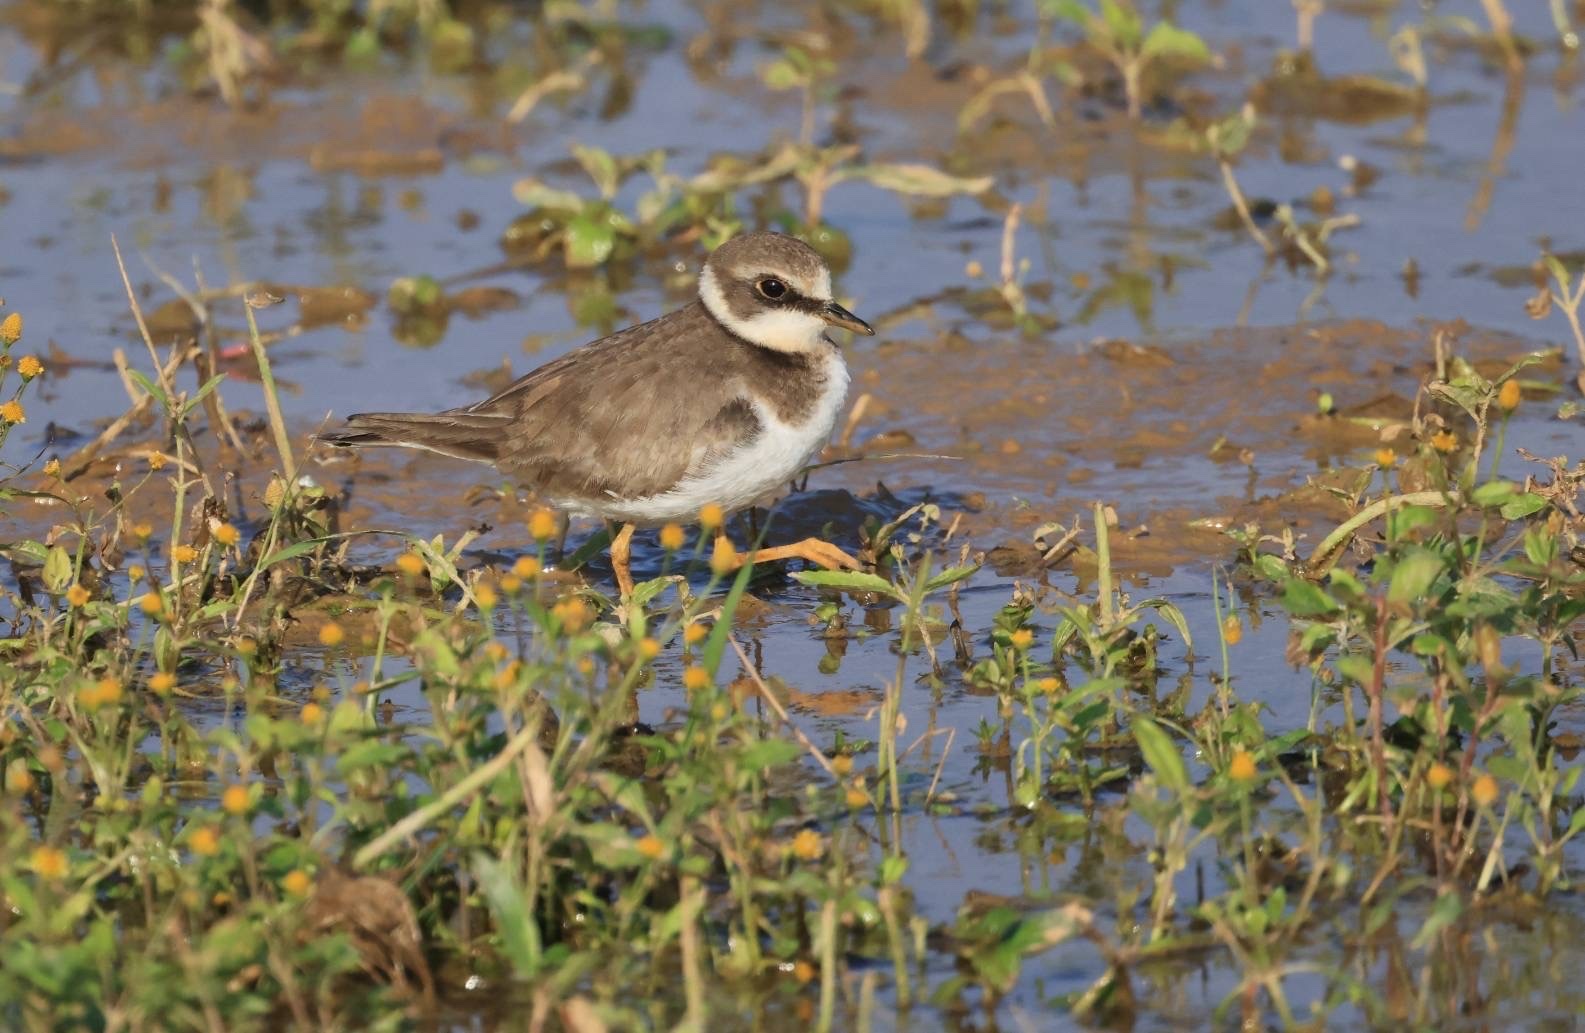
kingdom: Animalia
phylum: Chordata
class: Aves
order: Charadriiformes
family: Charadriidae
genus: Charadrius
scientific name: Charadrius dubius
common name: Little ringed plover
